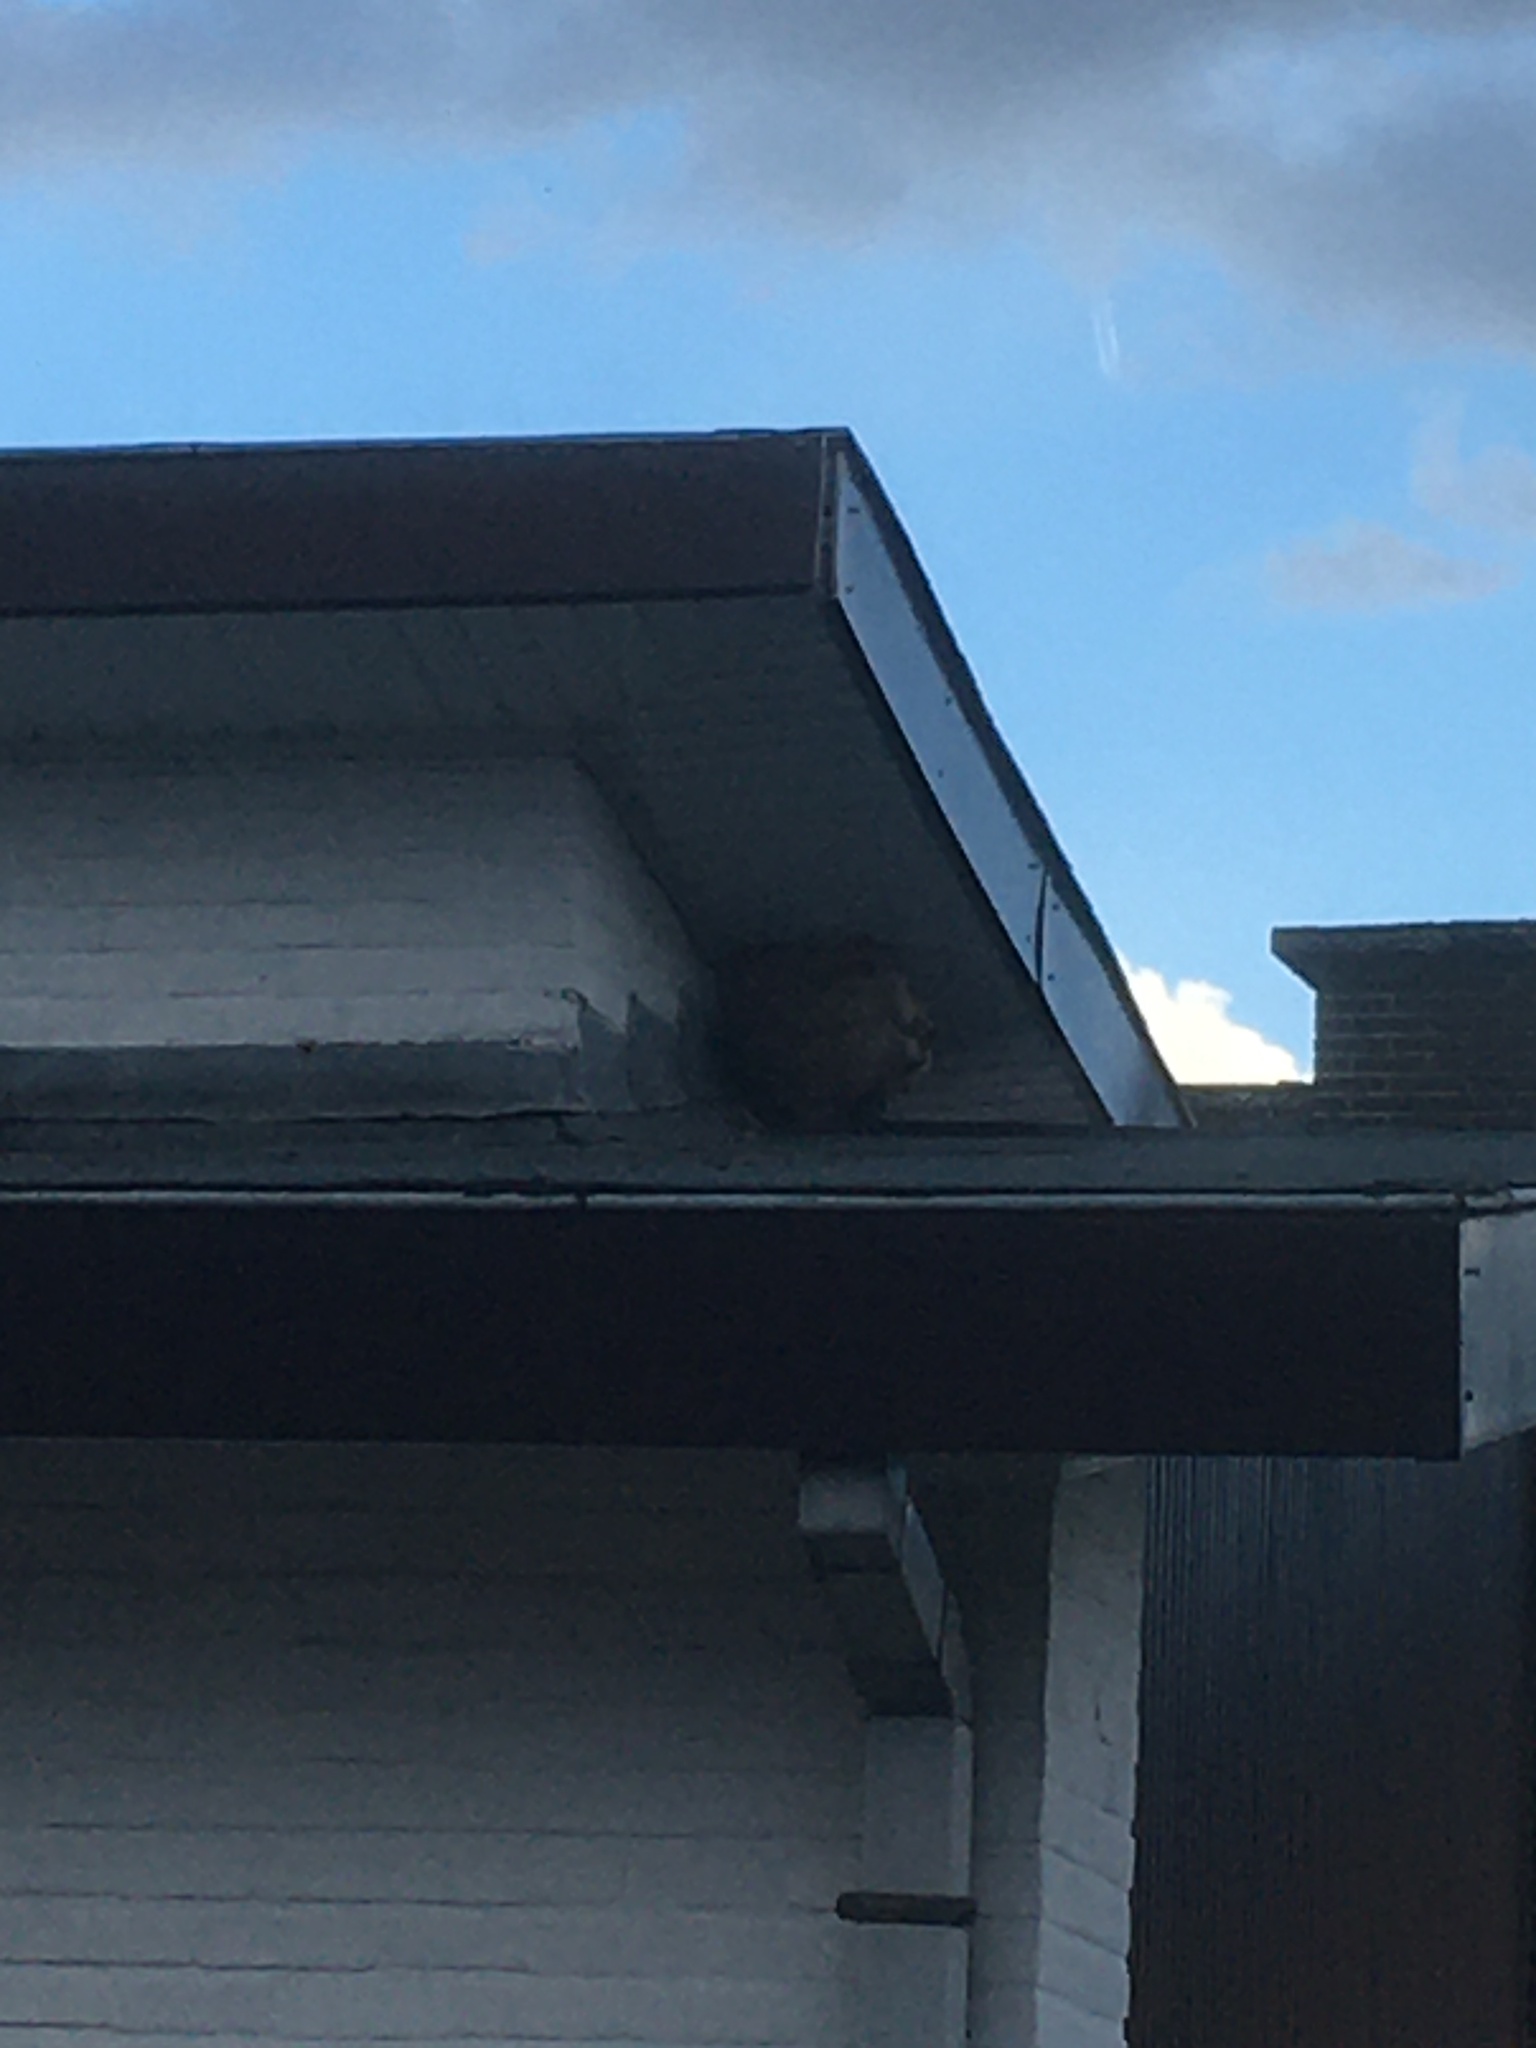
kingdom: Animalia
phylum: Arthropoda
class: Insecta
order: Hymenoptera
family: Vespidae
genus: Vespa
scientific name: Vespa velutina
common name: Asian hornet
